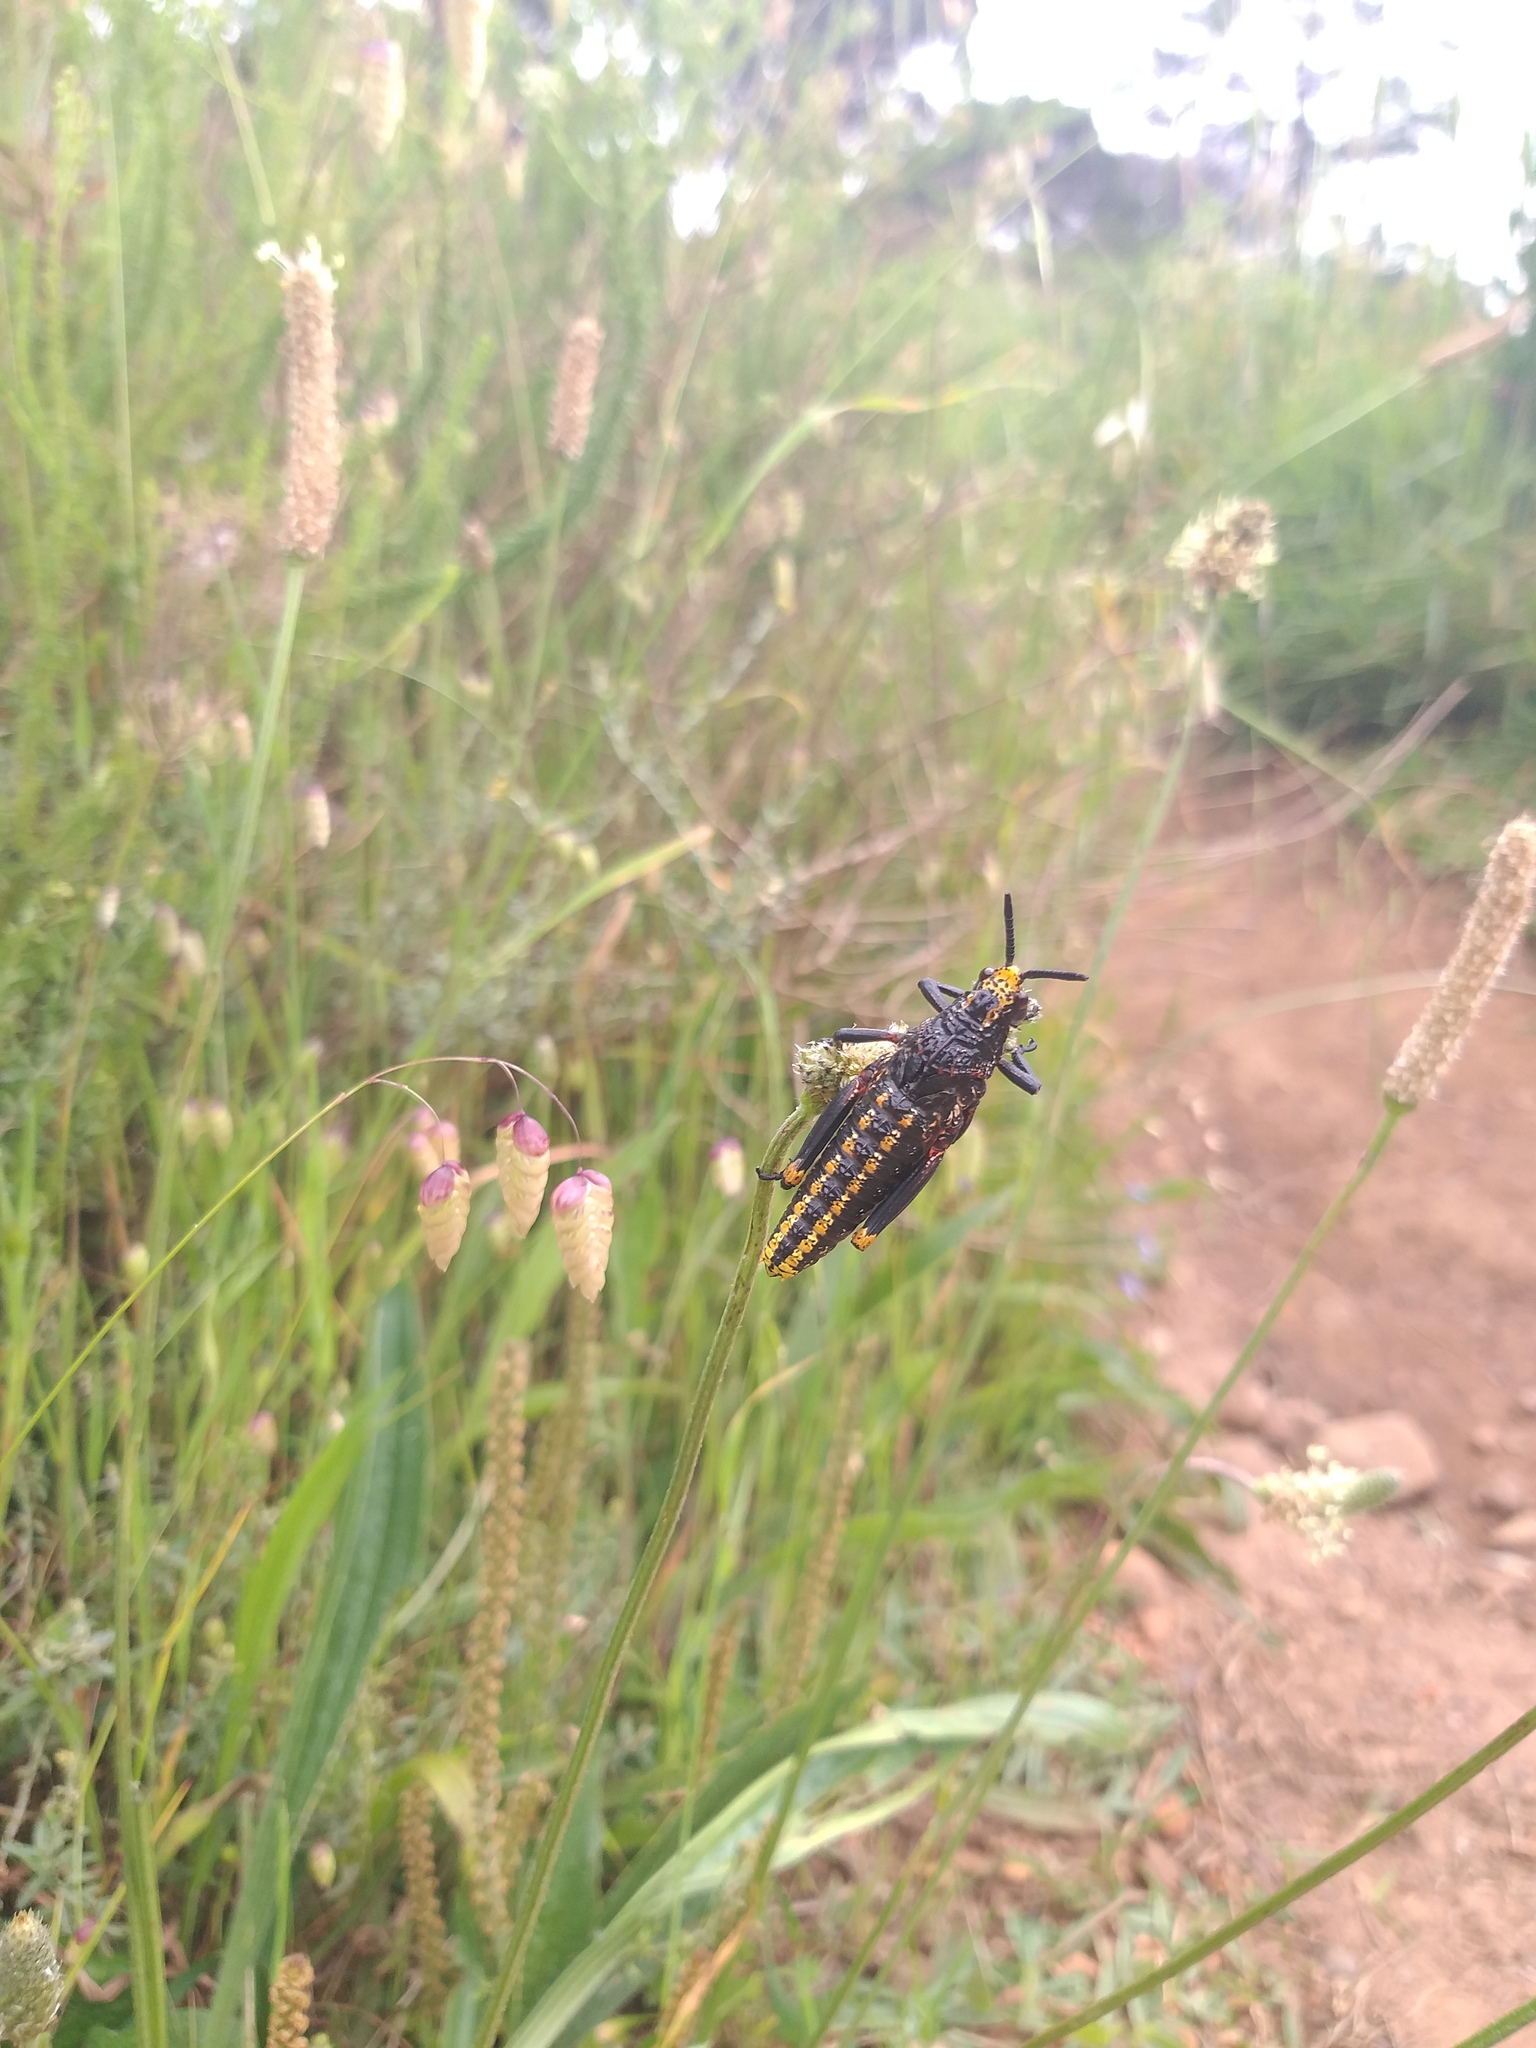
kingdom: Plantae
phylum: Tracheophyta
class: Liliopsida
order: Poales
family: Poaceae
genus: Briza
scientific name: Briza maxima
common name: Big quakinggrass
